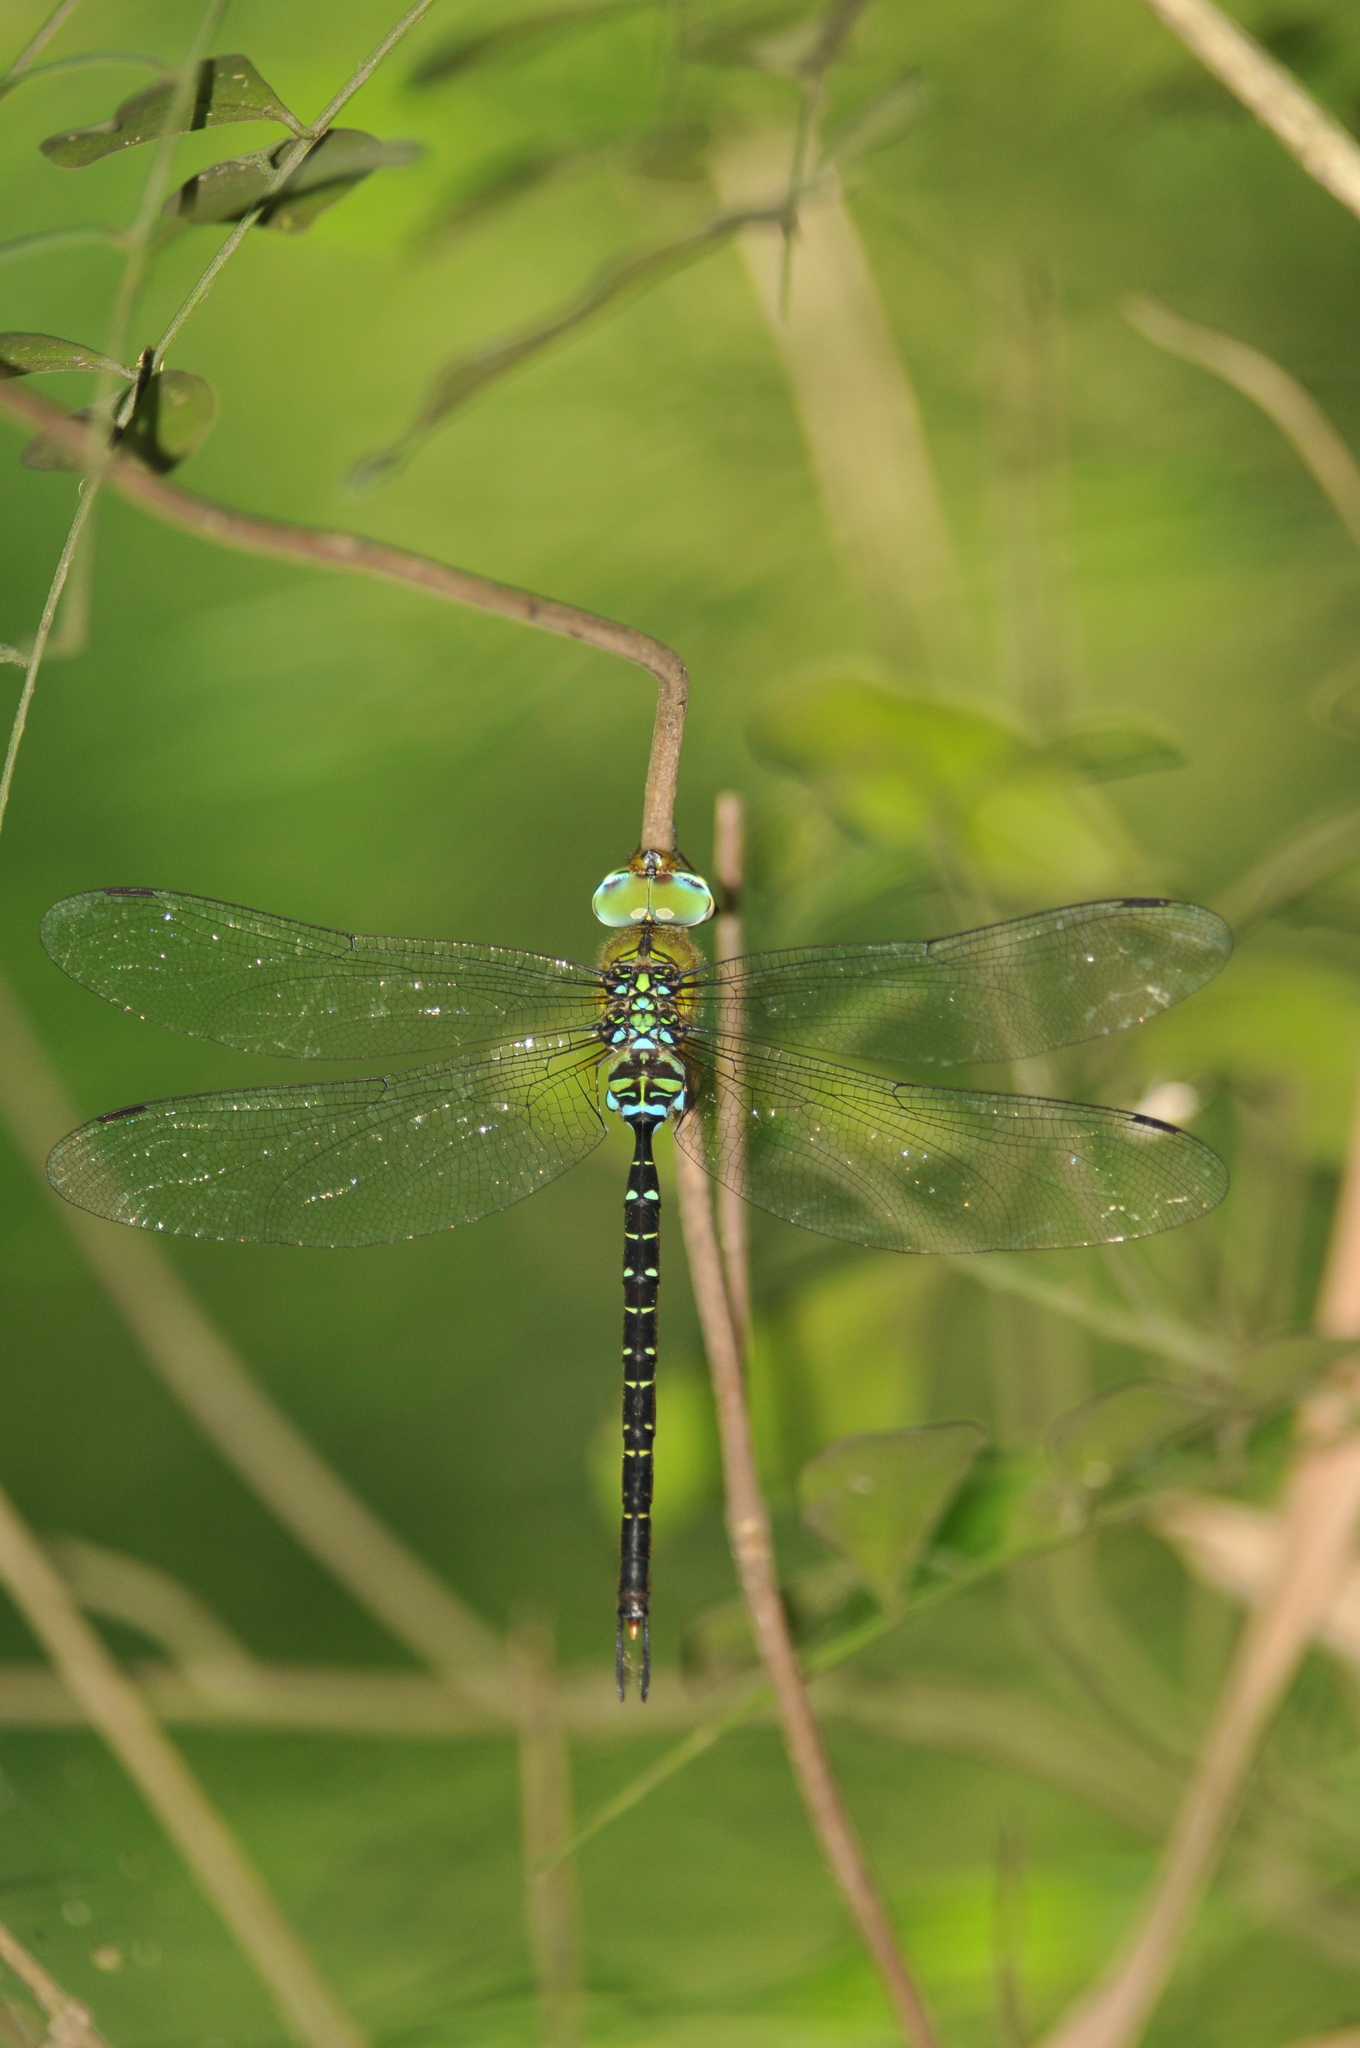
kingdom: Animalia
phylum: Arthropoda
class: Insecta
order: Odonata
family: Aeshnidae
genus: Gynacantha
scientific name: Gynacantha japonica
